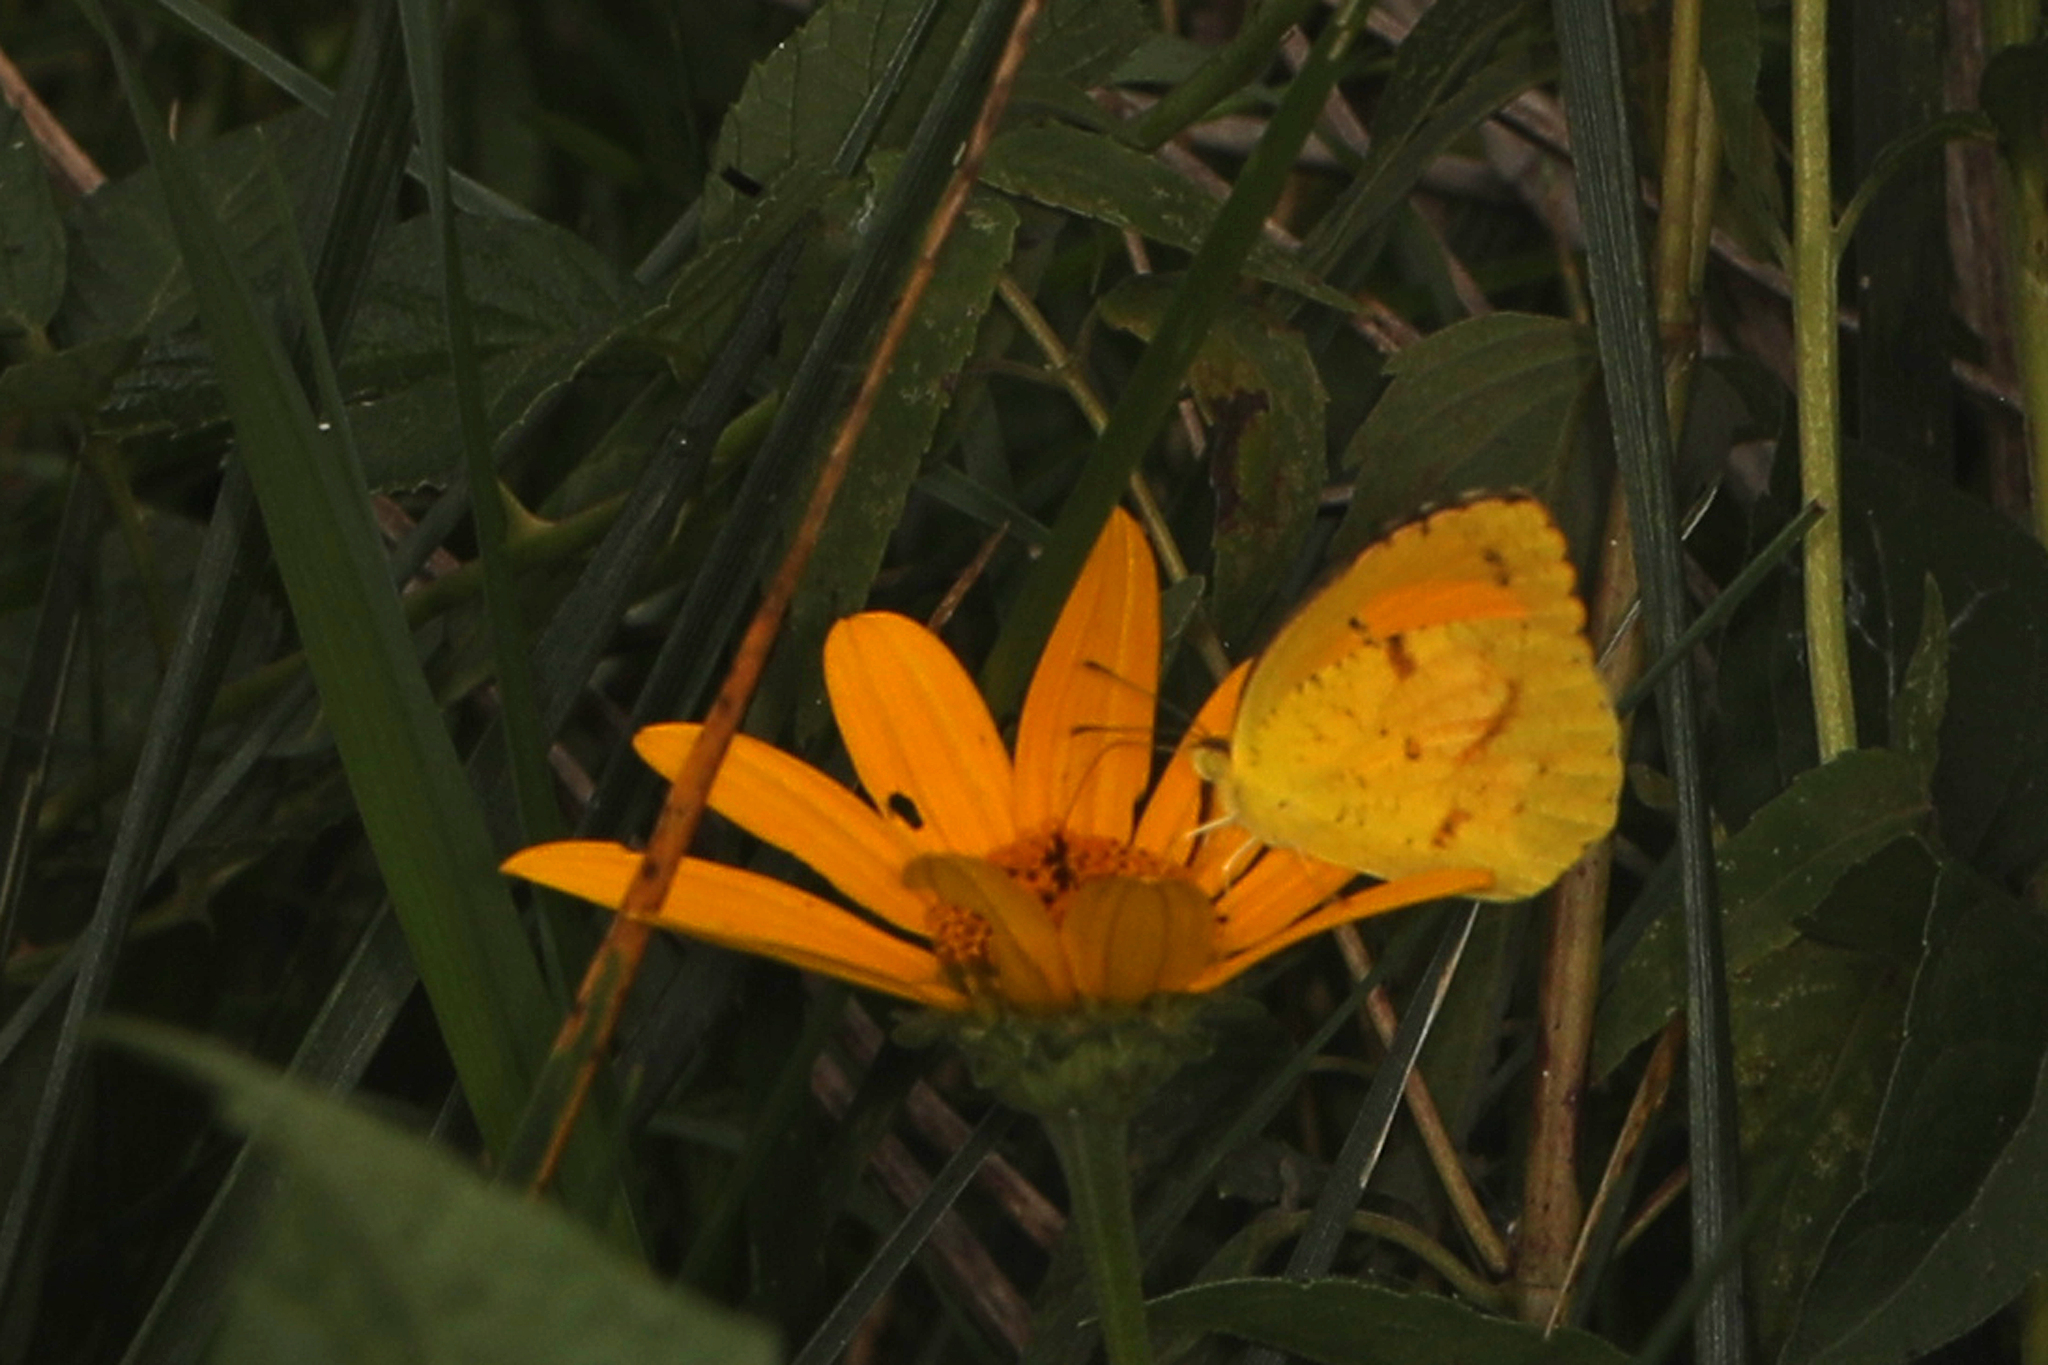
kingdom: Animalia
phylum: Arthropoda
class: Insecta
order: Lepidoptera
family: Pieridae
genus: Abaeis
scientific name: Abaeis nicippe
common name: Sleepy orange
